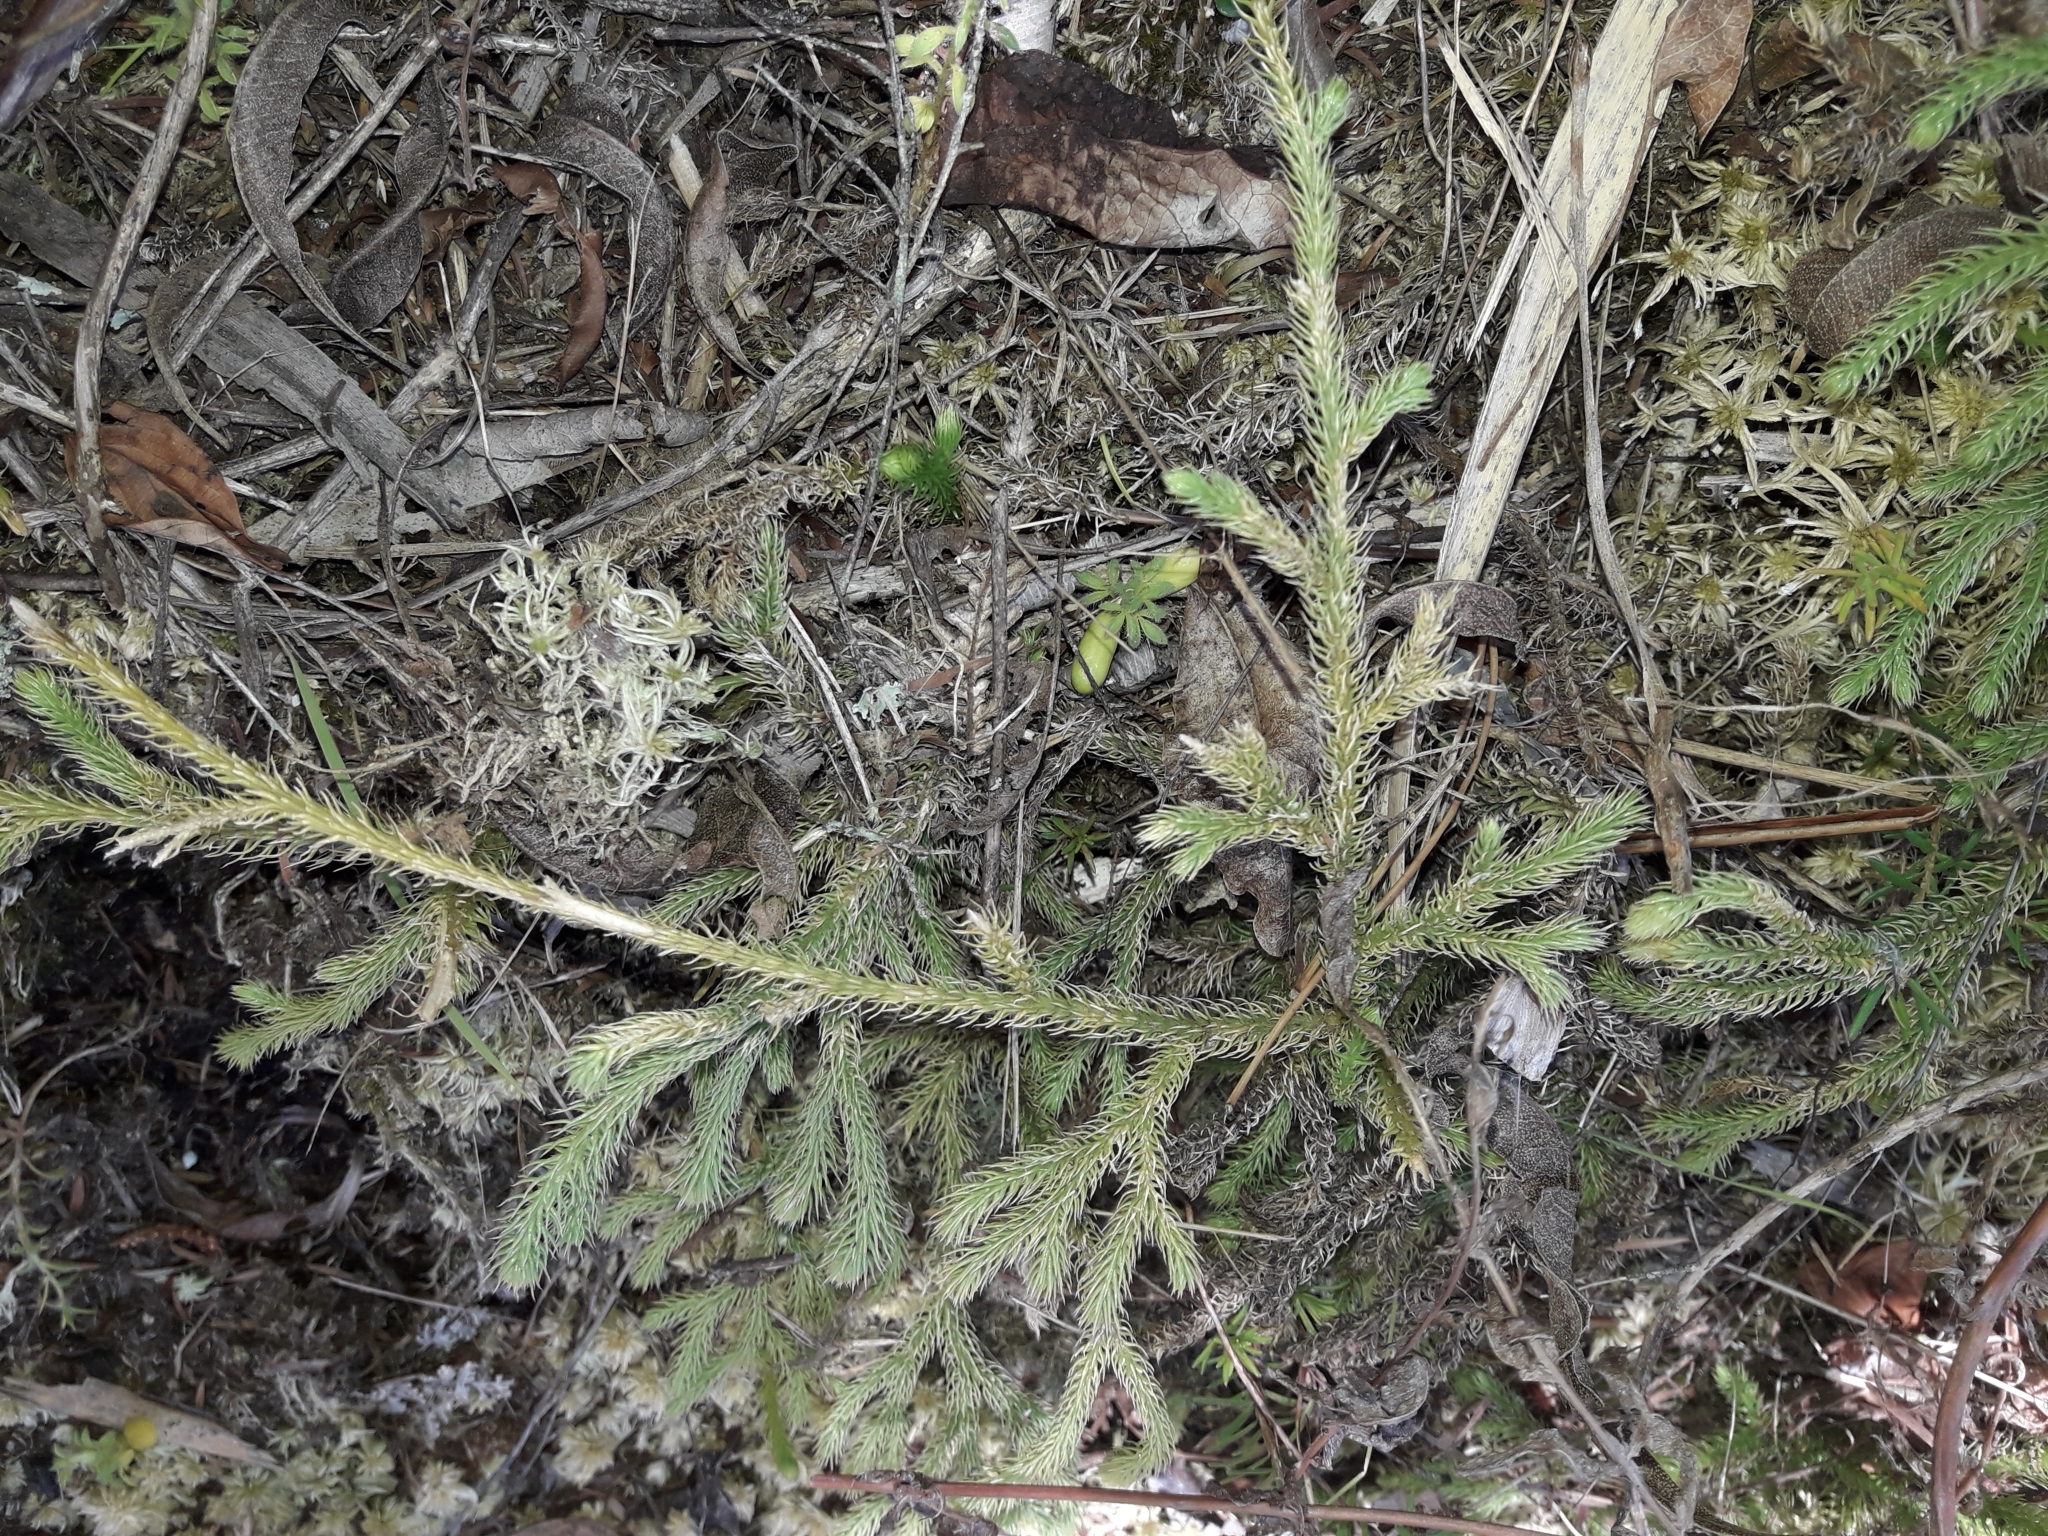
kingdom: Plantae
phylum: Tracheophyta
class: Lycopodiopsida
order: Lycopodiales
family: Lycopodiaceae
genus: Palhinhaea
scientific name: Palhinhaea cernua
